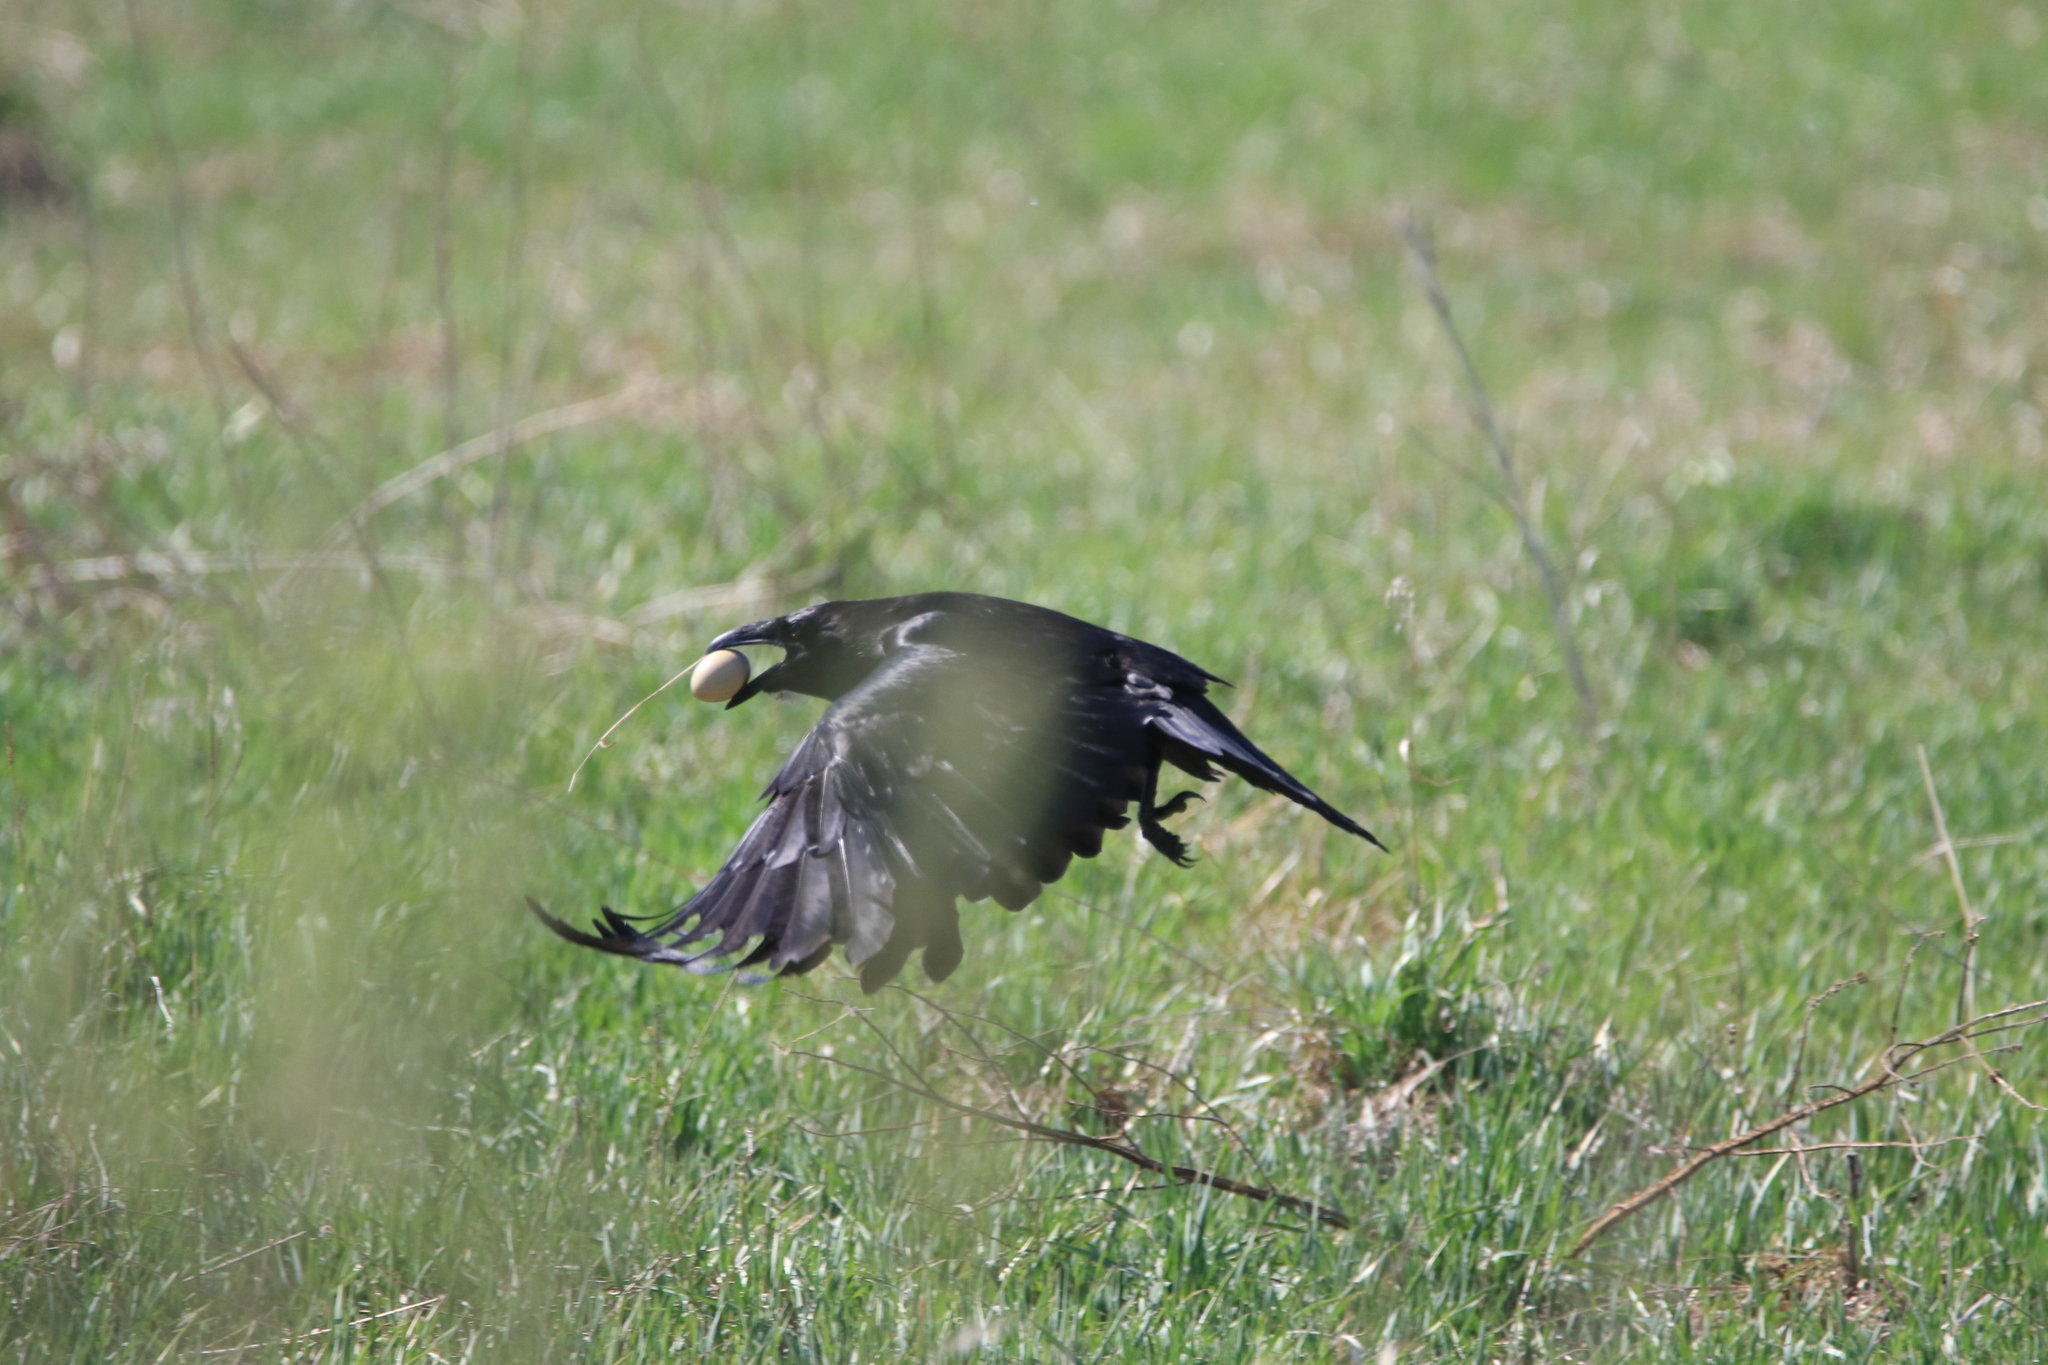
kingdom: Animalia
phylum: Chordata
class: Aves
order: Passeriformes
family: Corvidae
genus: Corvus
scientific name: Corvus corax
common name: Common raven
